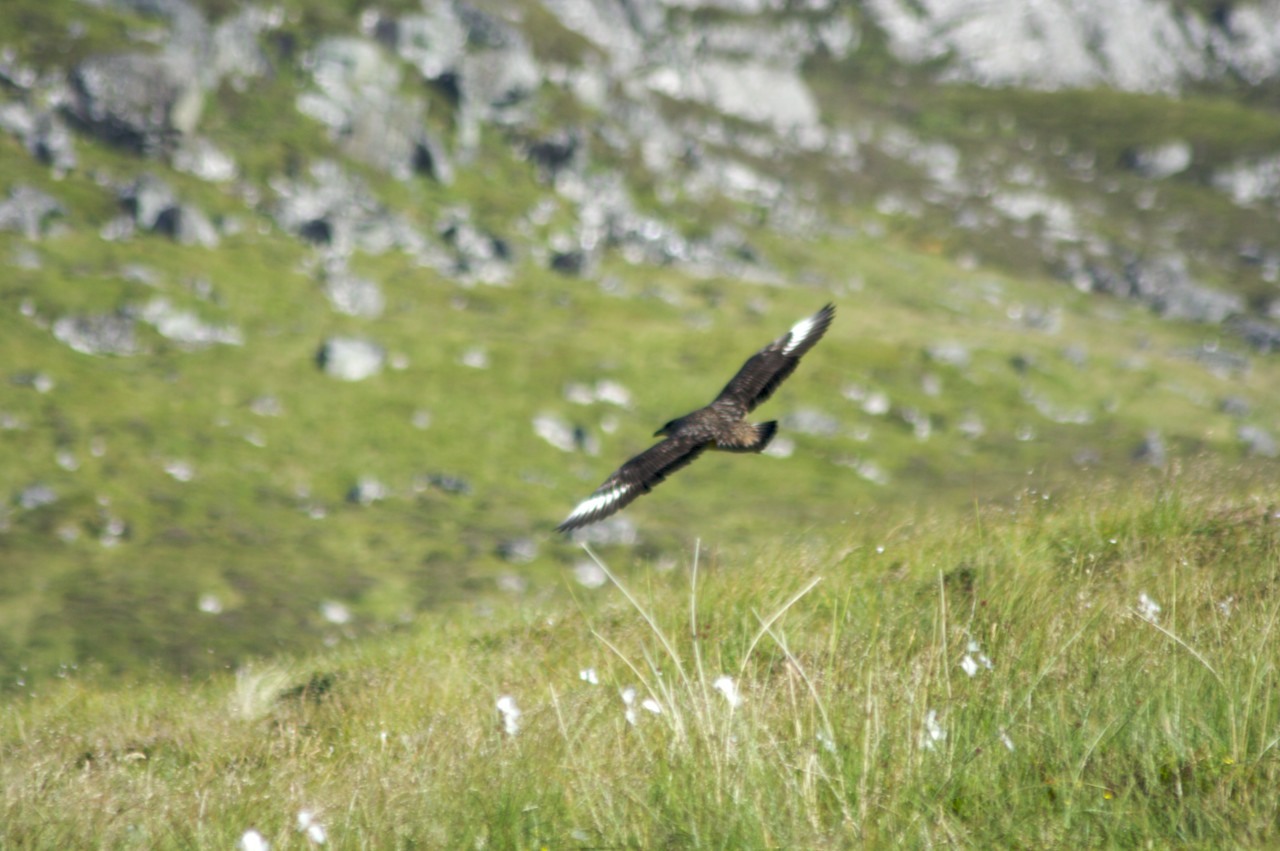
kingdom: Animalia
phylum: Chordata
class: Aves
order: Charadriiformes
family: Stercorariidae
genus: Stercorarius
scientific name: Stercorarius skua
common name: Great skua
